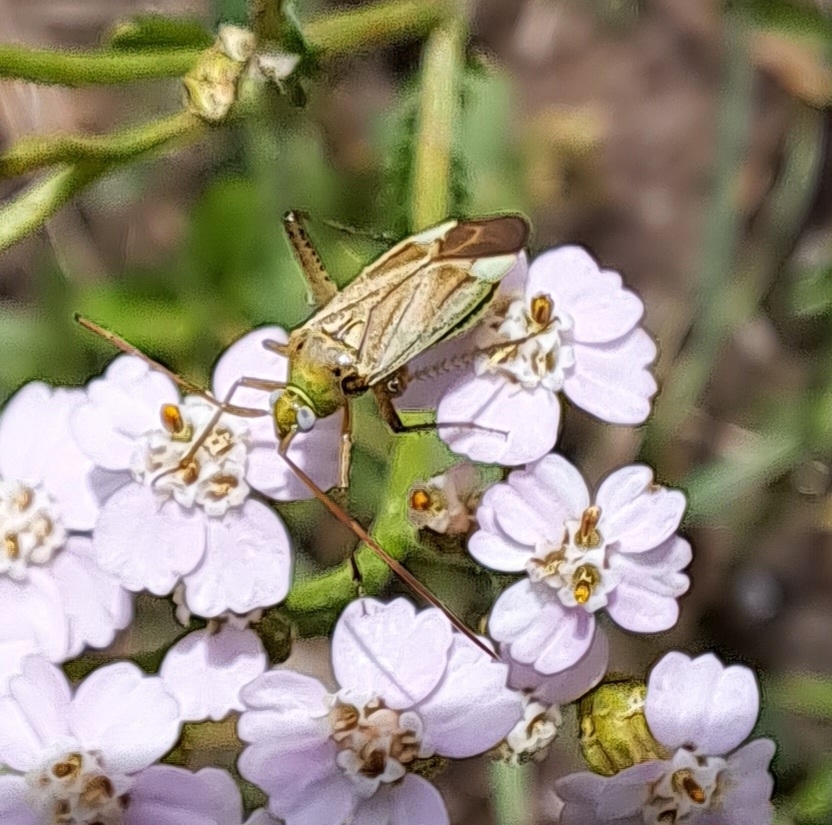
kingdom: Animalia
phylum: Arthropoda
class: Insecta
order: Hemiptera
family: Miridae
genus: Adelphocoris
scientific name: Adelphocoris lineolatus
